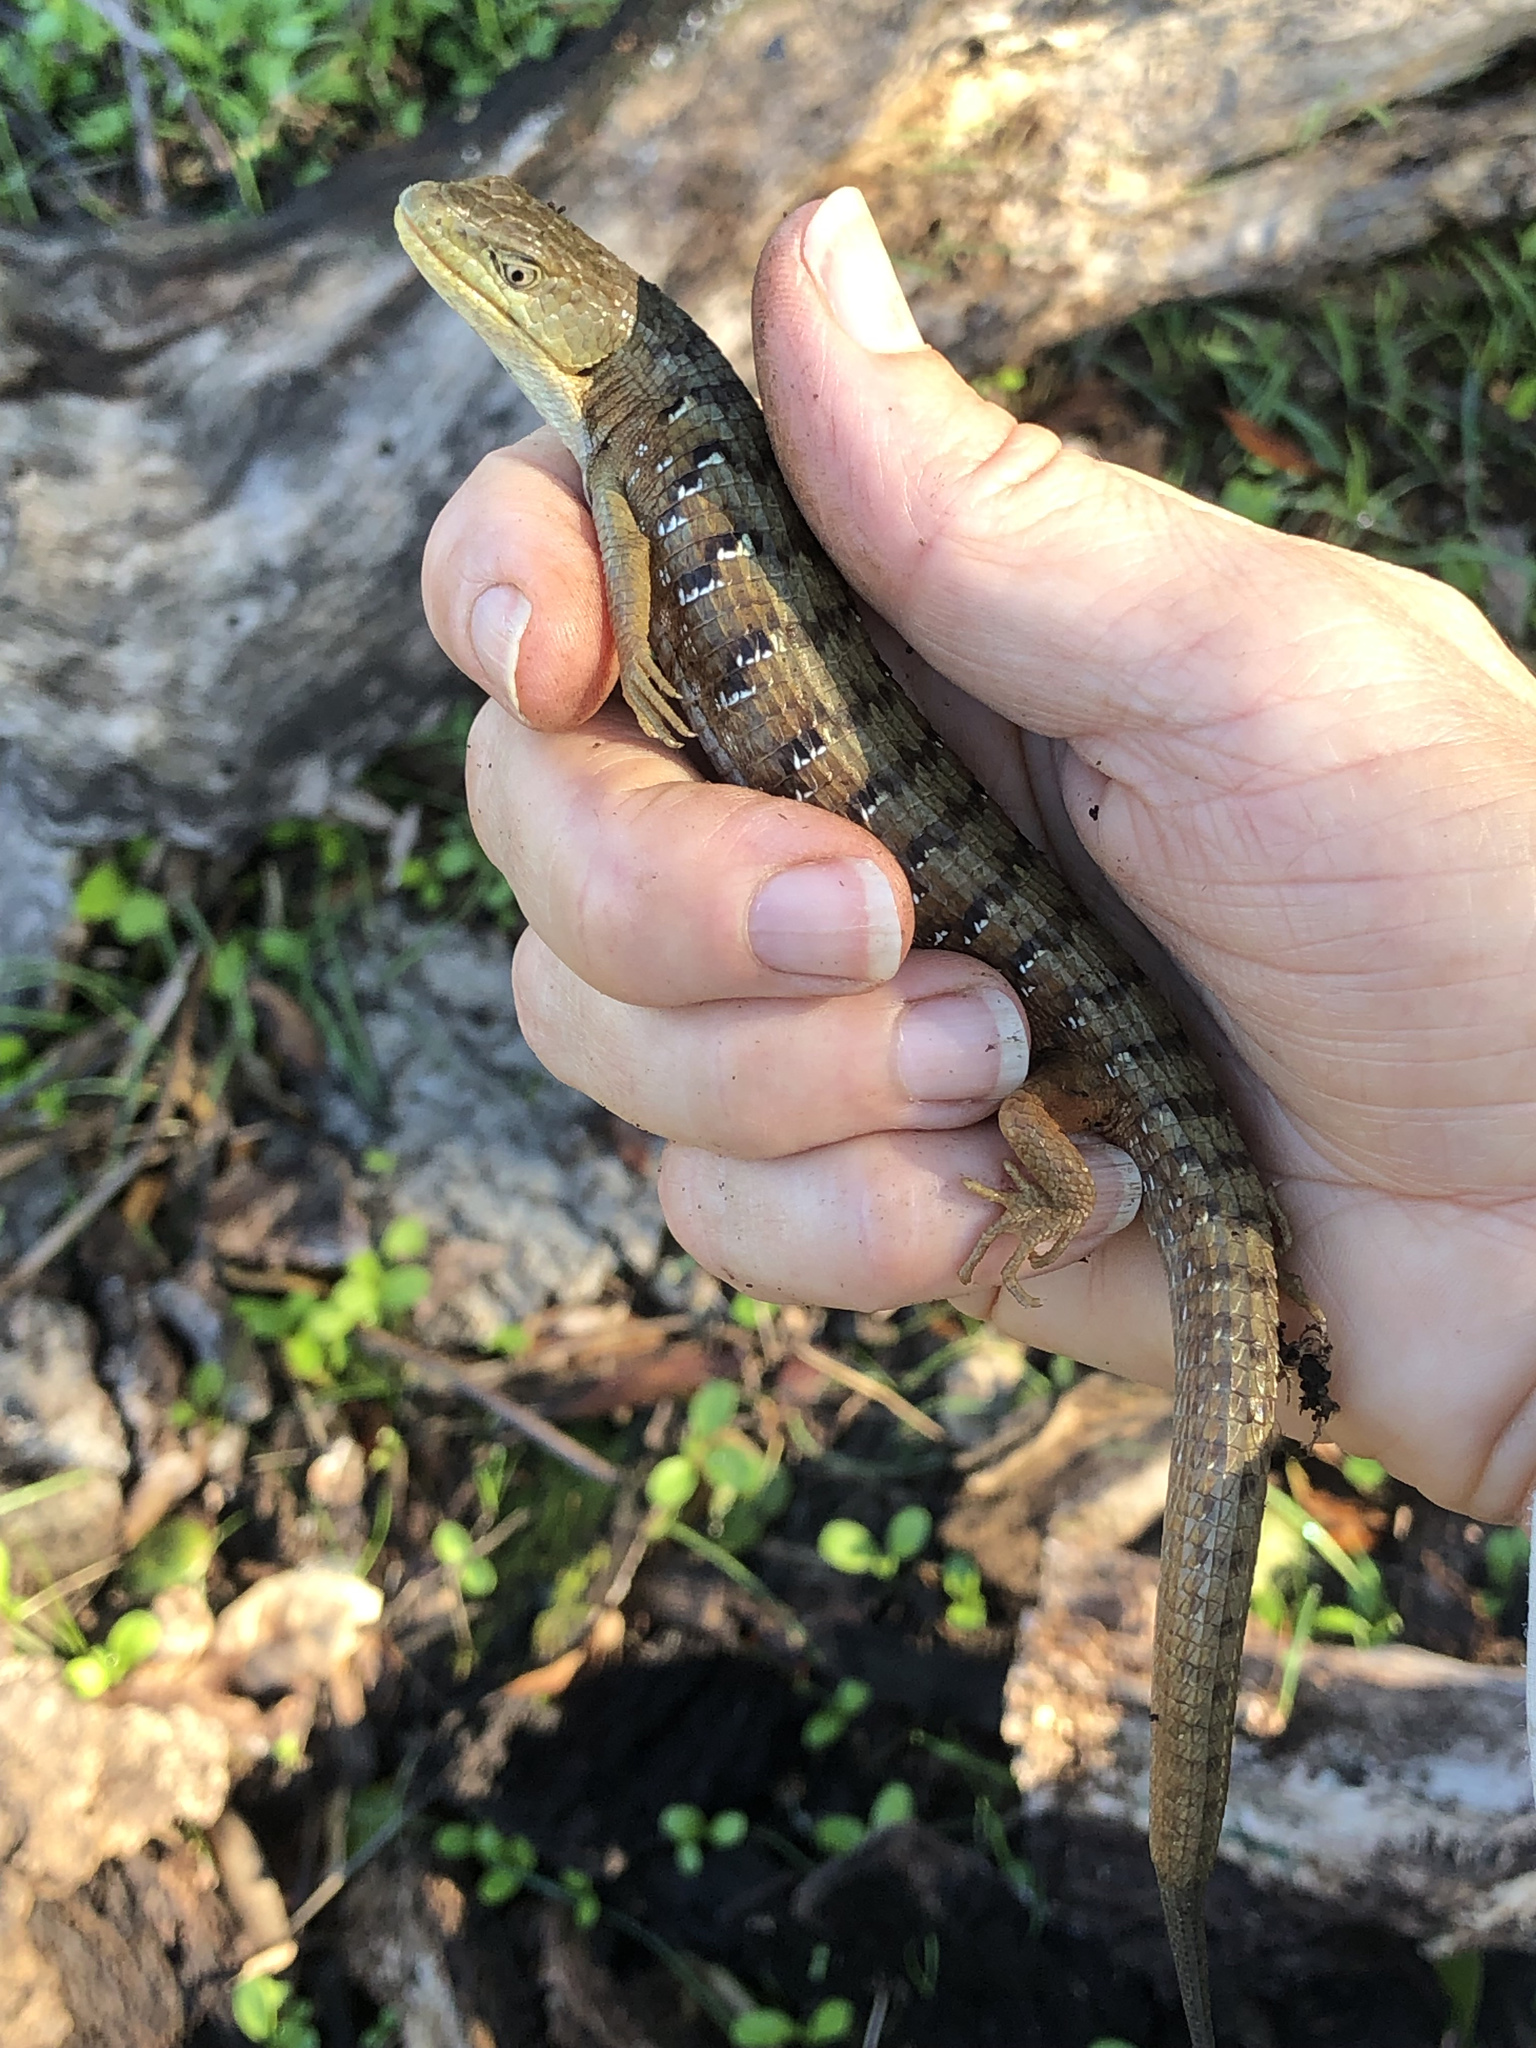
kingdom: Animalia
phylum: Chordata
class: Squamata
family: Anguidae
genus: Elgaria
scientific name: Elgaria multicarinata
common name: Southern alligator lizard
